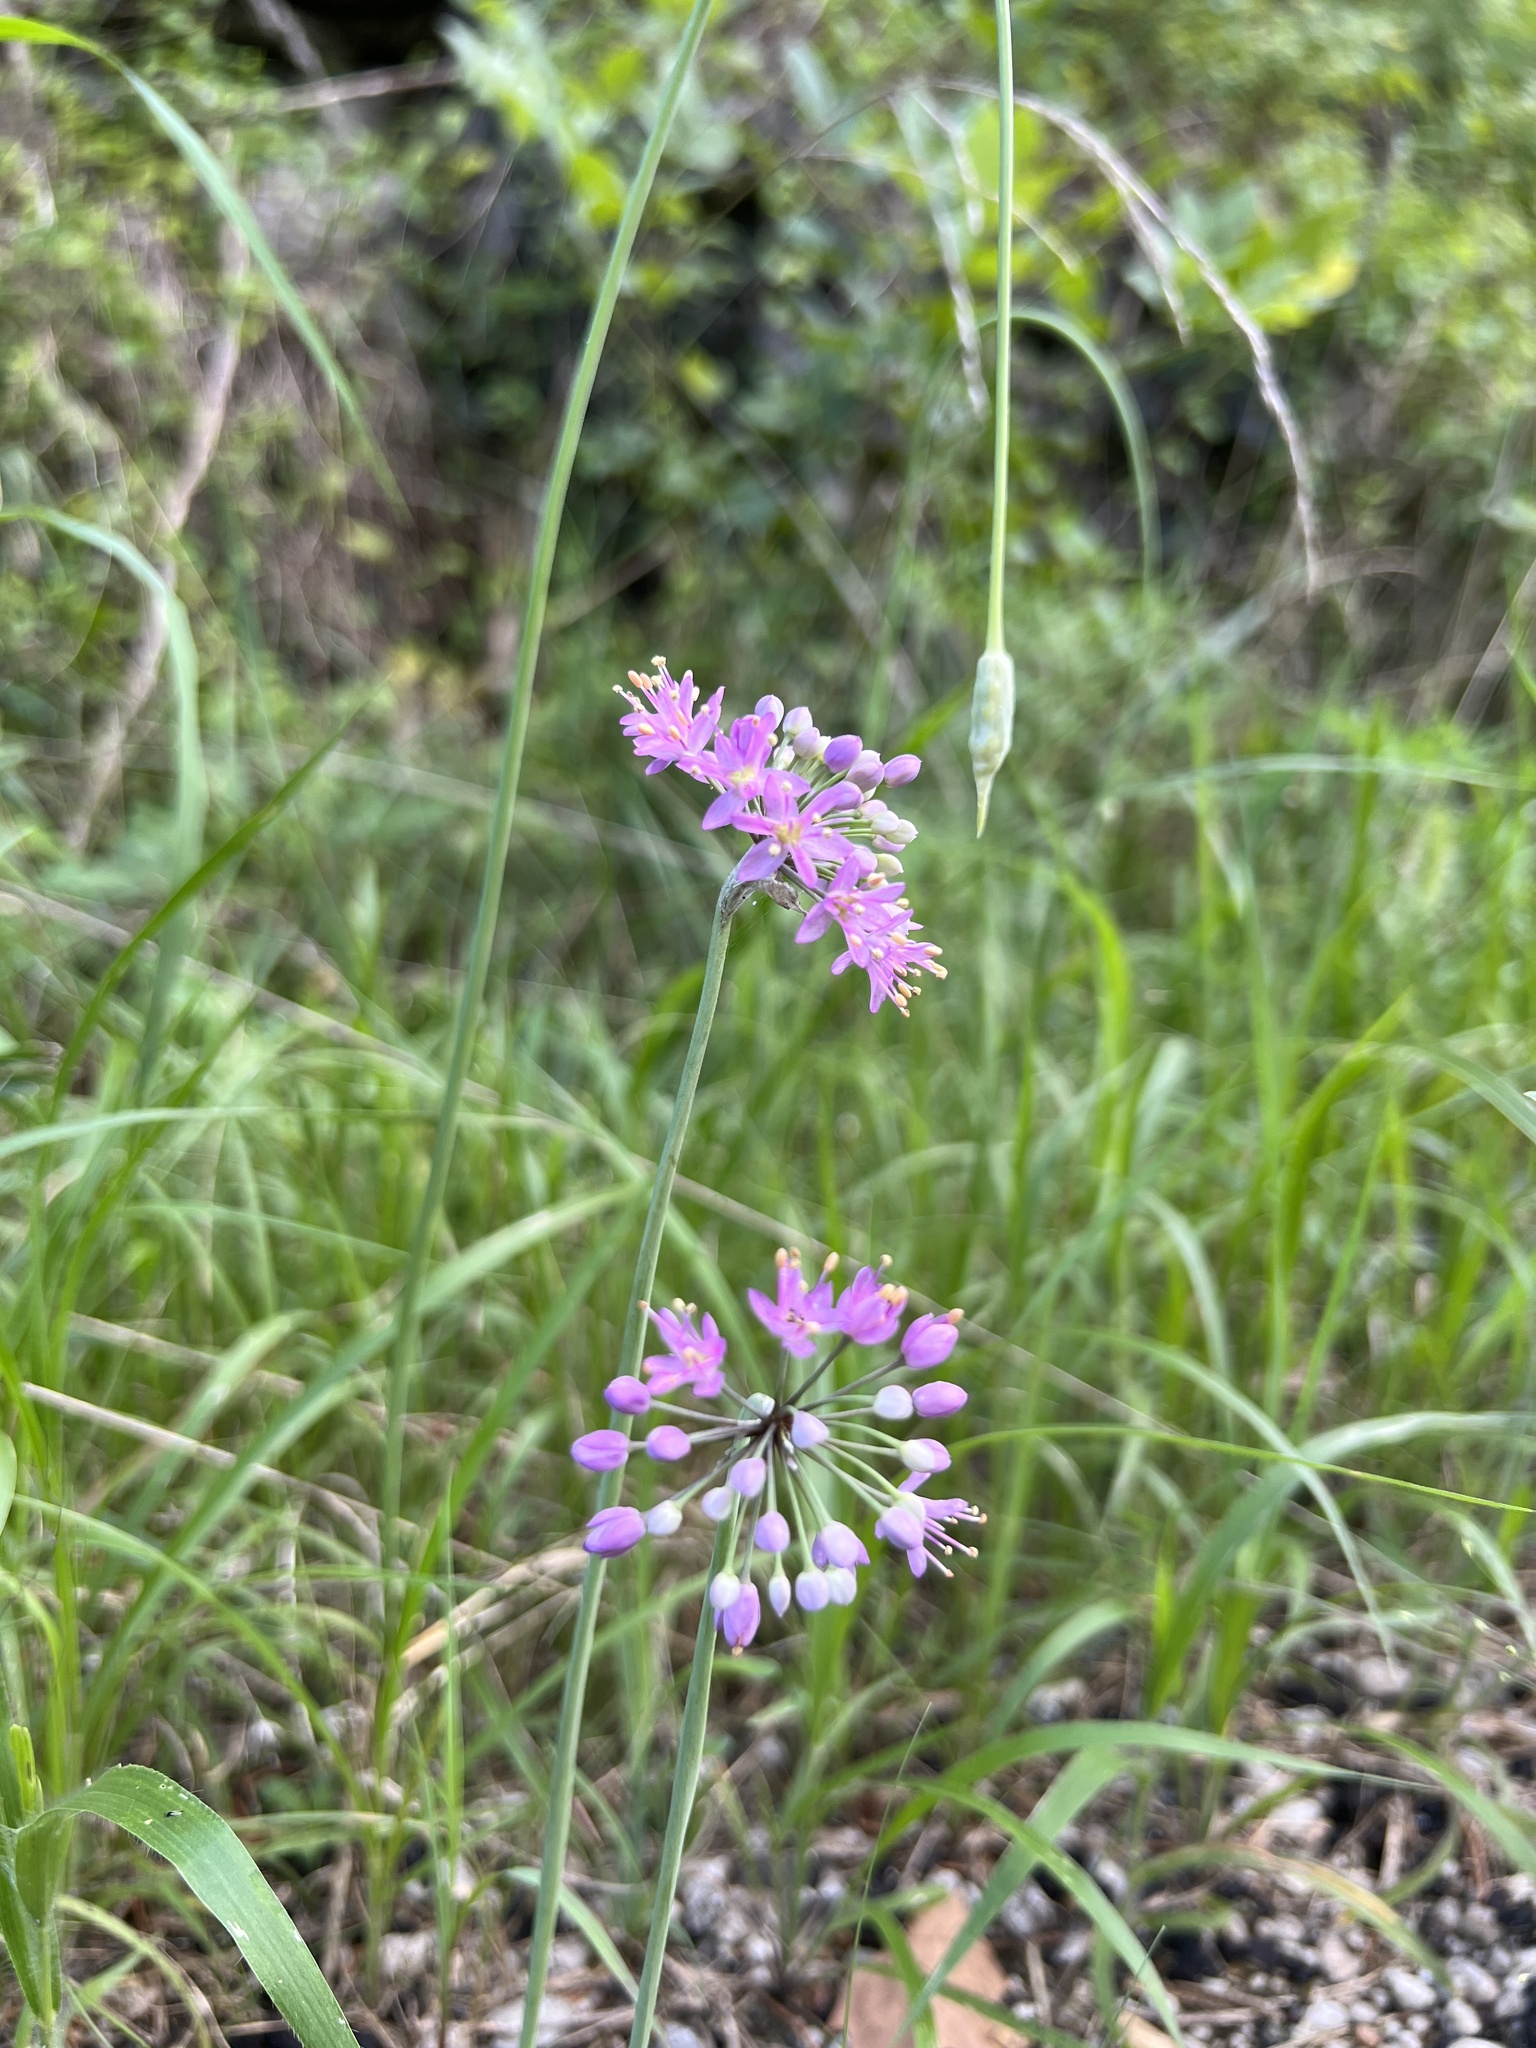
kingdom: Plantae
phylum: Tracheophyta
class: Liliopsida
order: Asparagales
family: Amaryllidaceae
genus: Allium
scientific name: Allium stellatum
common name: Autumn onion
